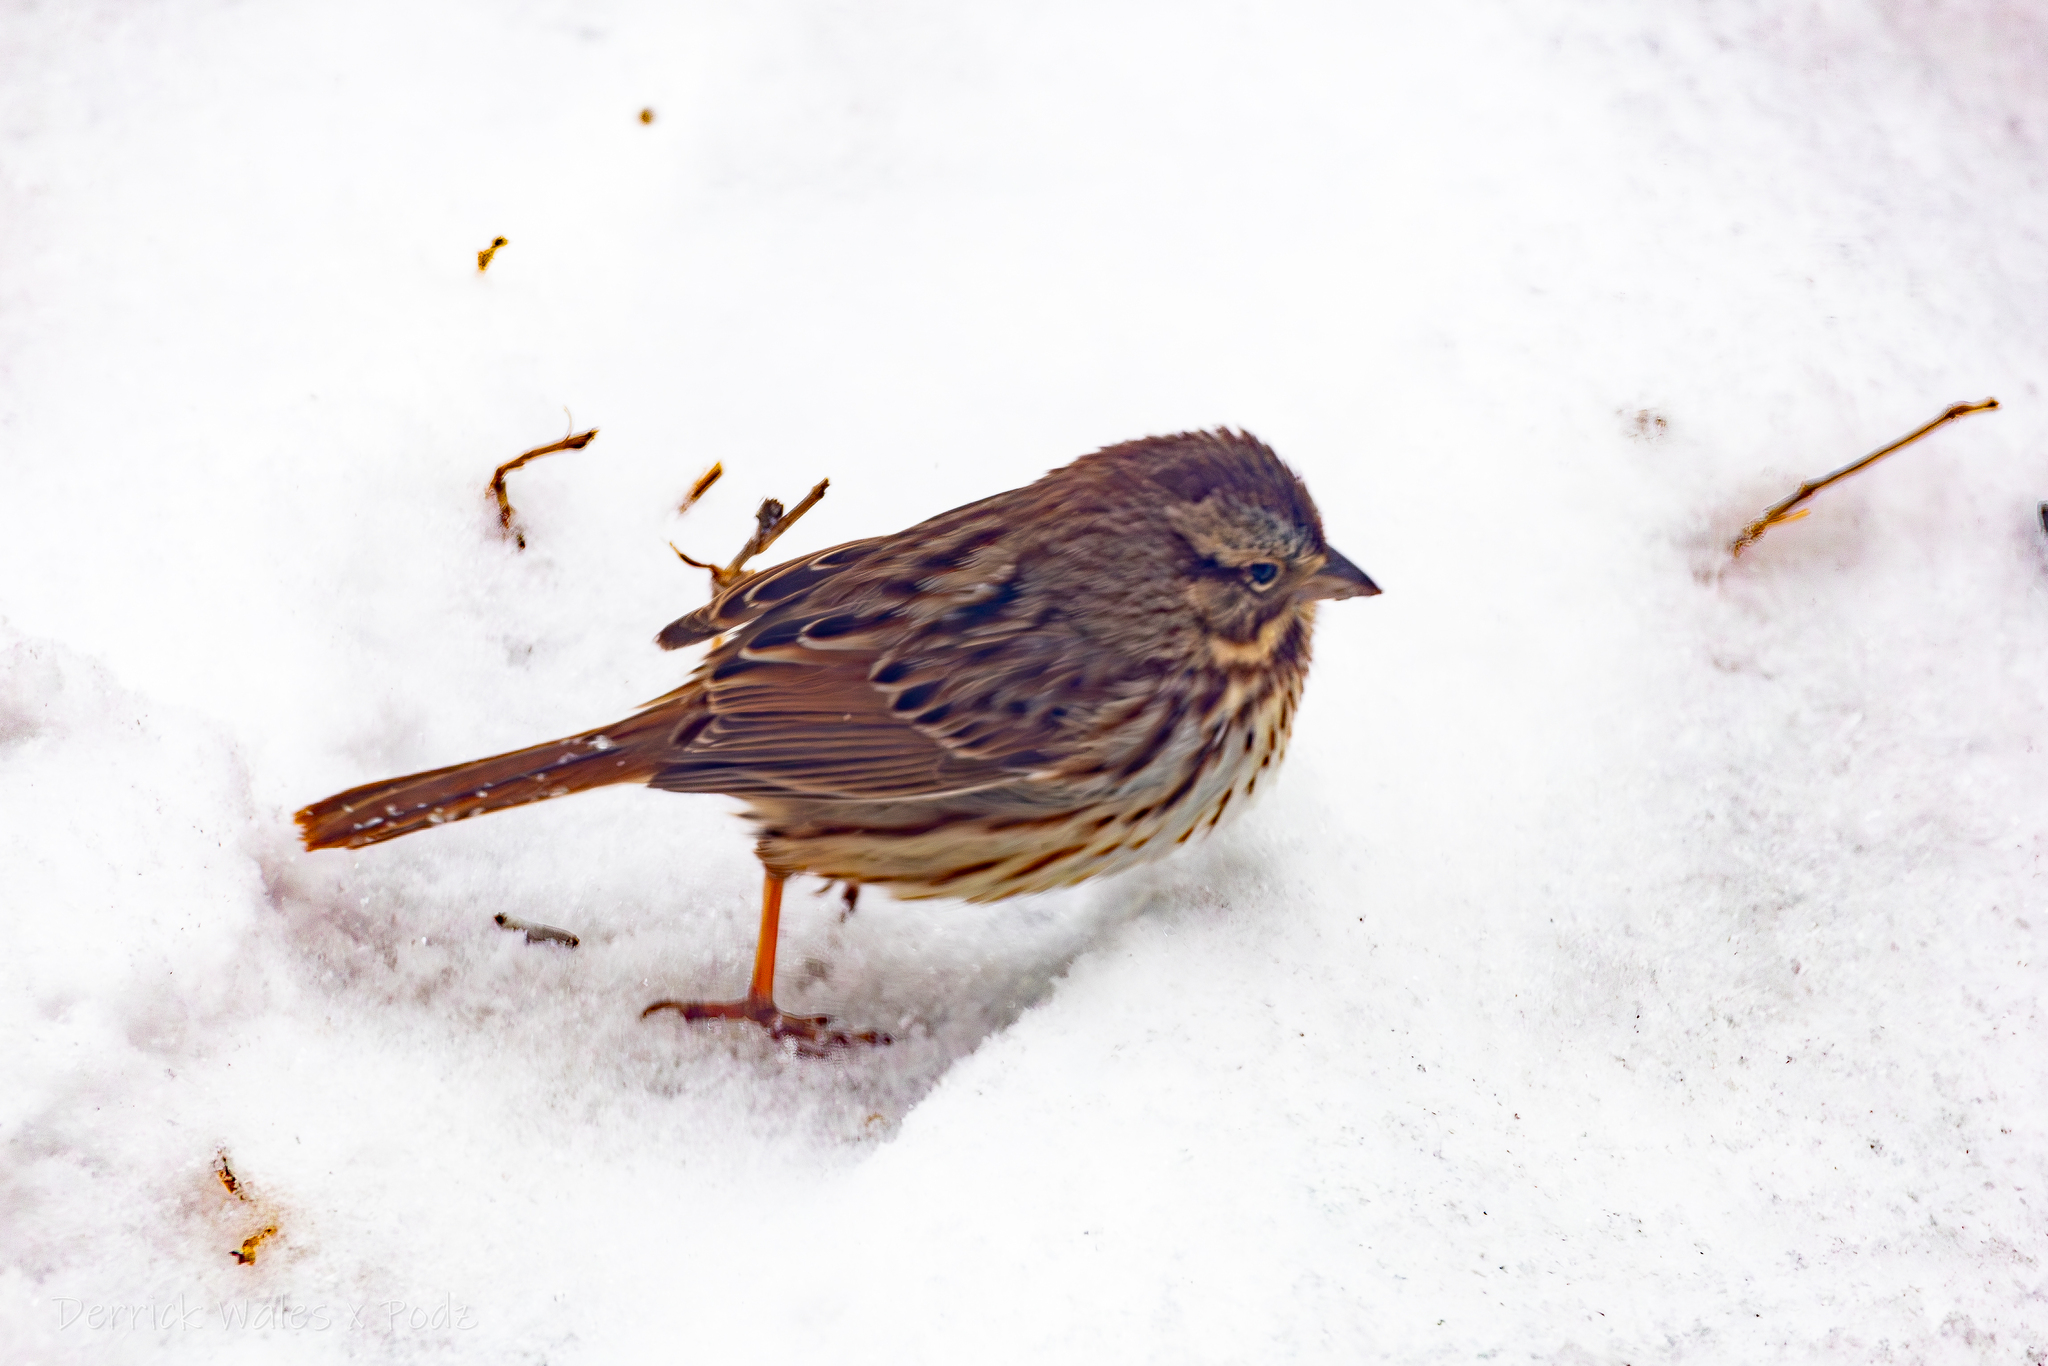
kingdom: Animalia
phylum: Chordata
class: Aves
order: Passeriformes
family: Passerellidae
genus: Melospiza
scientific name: Melospiza melodia
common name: Song sparrow
